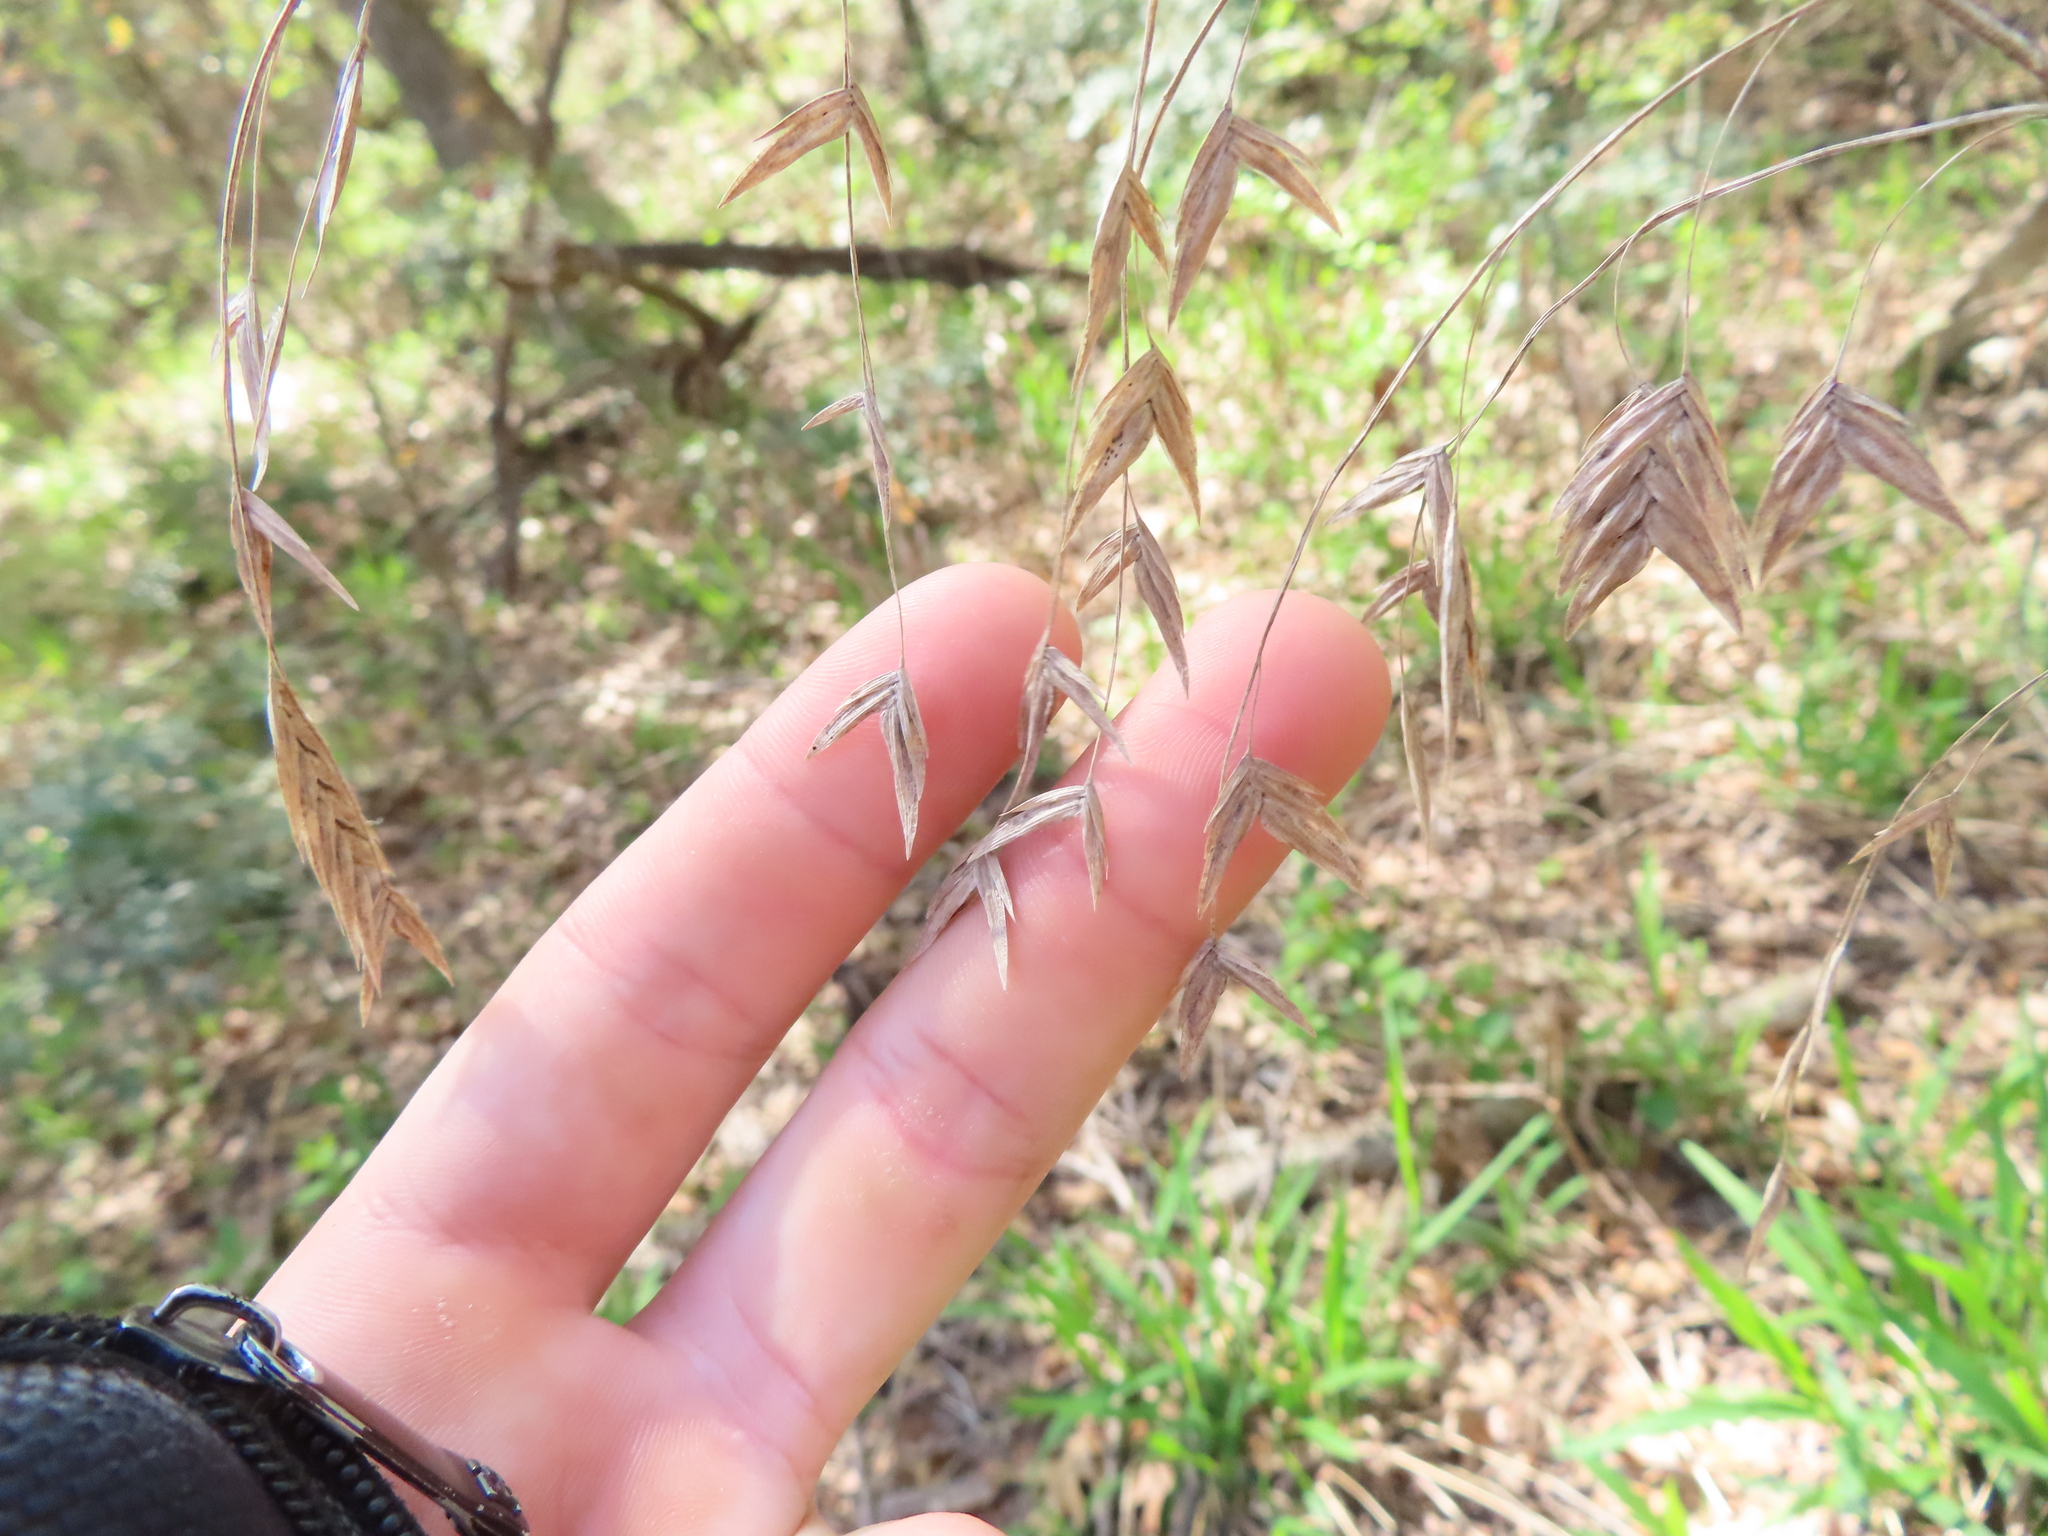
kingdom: Plantae
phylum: Tracheophyta
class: Liliopsida
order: Poales
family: Poaceae
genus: Chasmanthium
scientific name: Chasmanthium latifolium
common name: Broad-leaved chasmanthium
